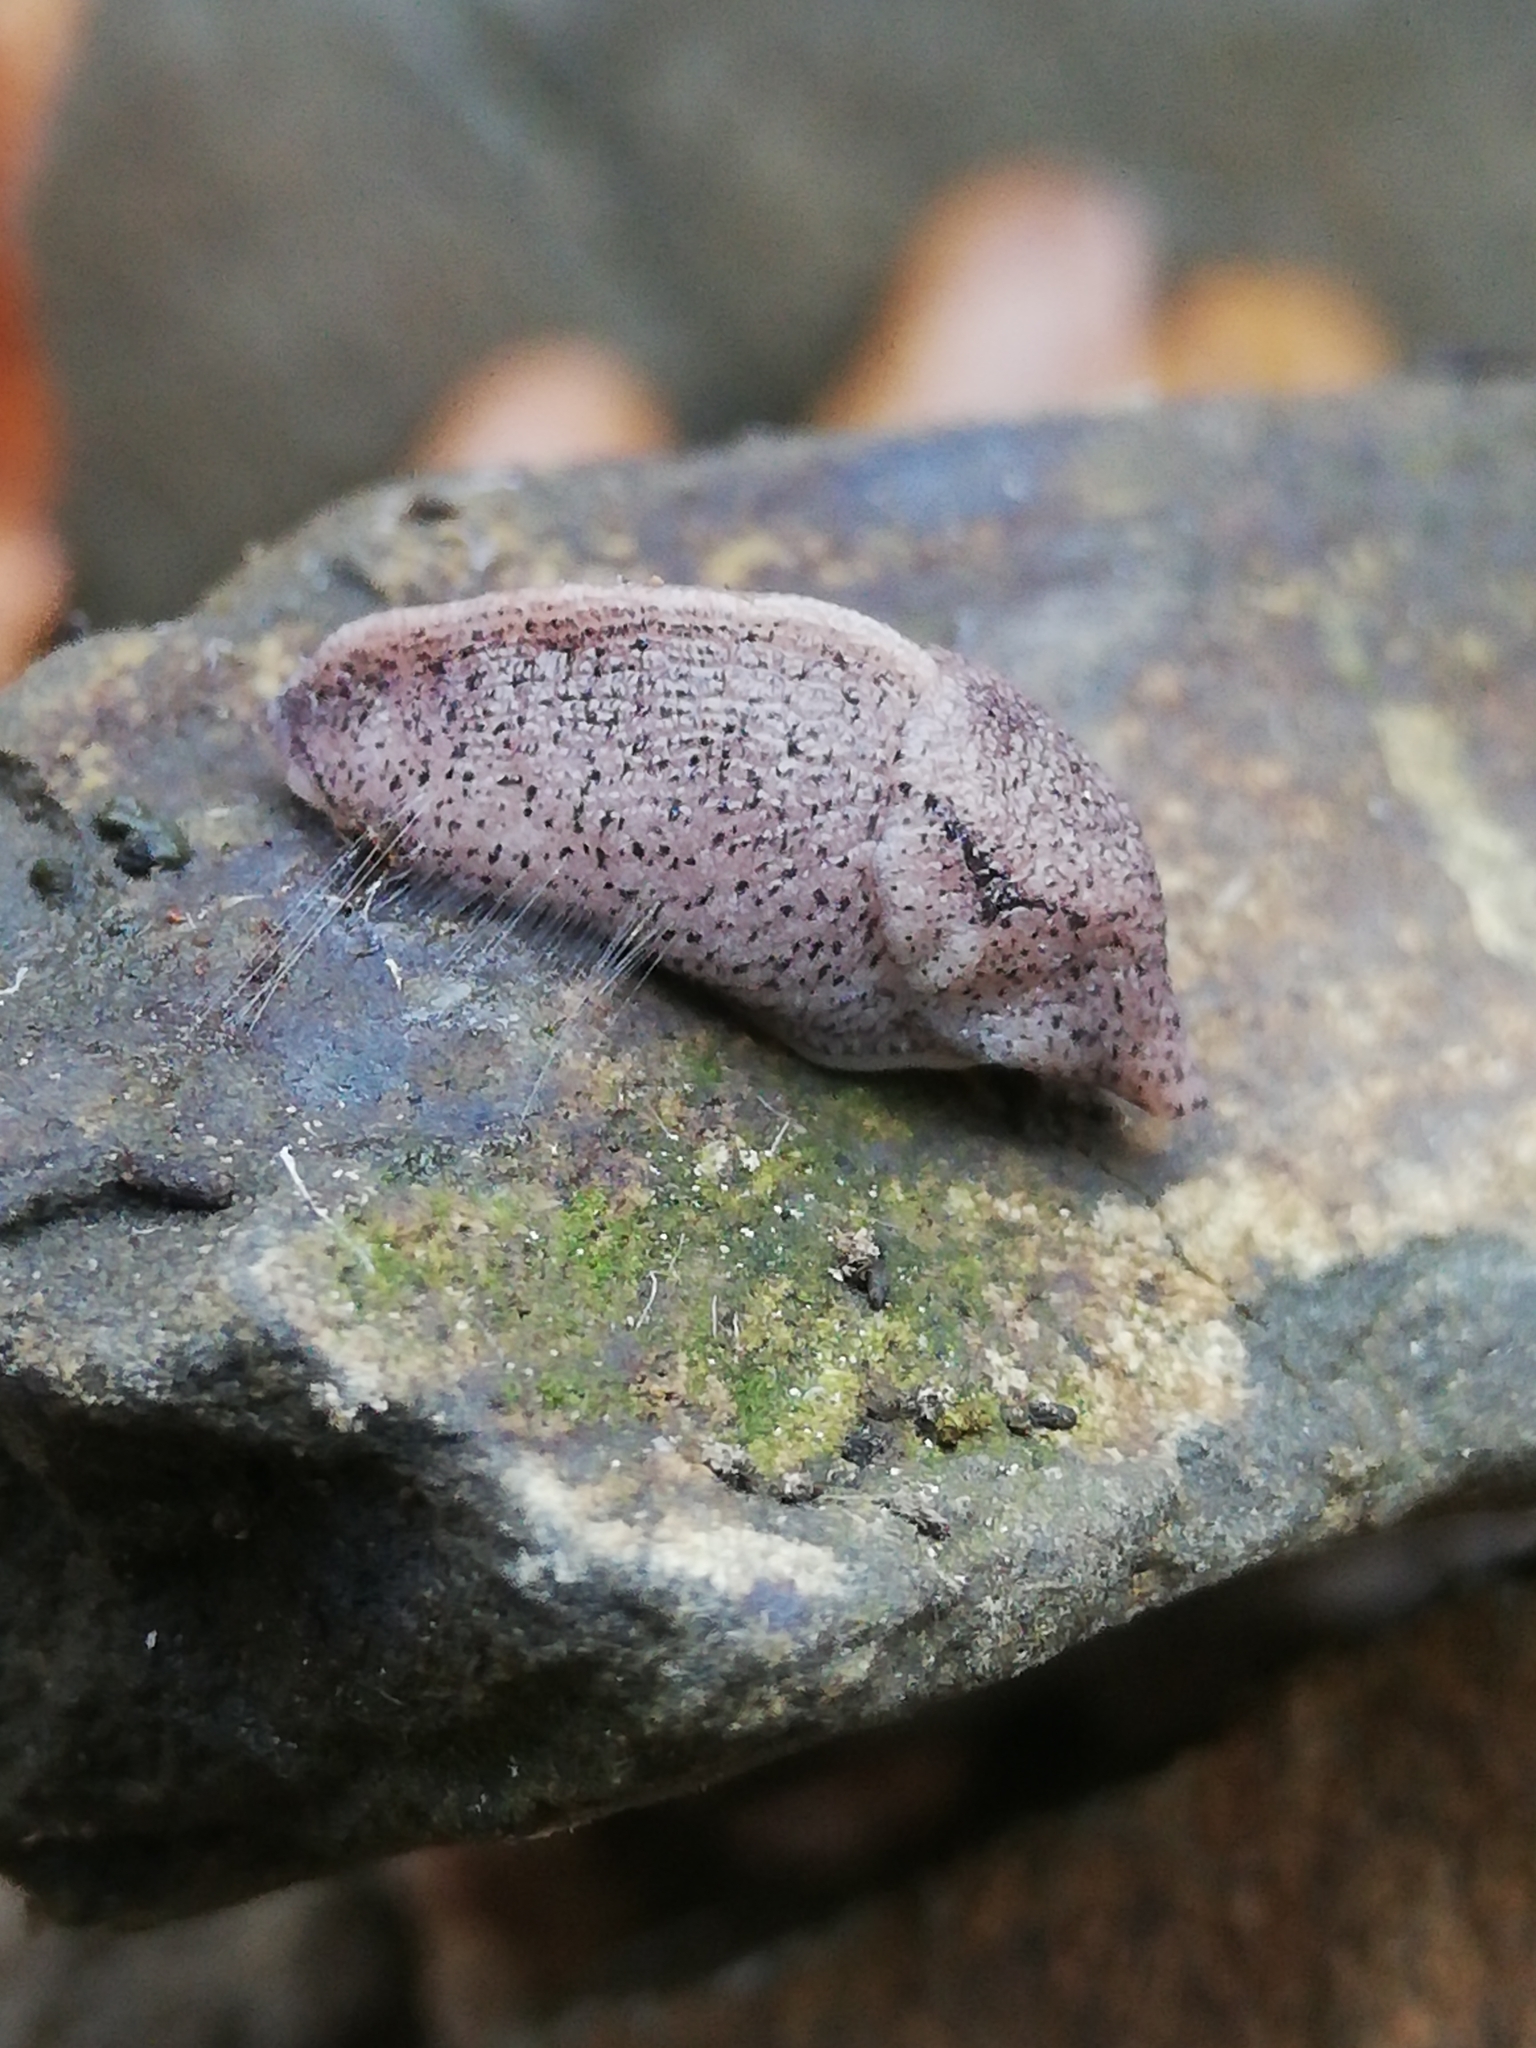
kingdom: Animalia
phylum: Mollusca
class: Gastropoda
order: Stylommatophora
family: Milacidae
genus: Tandonia
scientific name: Tandonia rustica
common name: Bulb-eating slug
